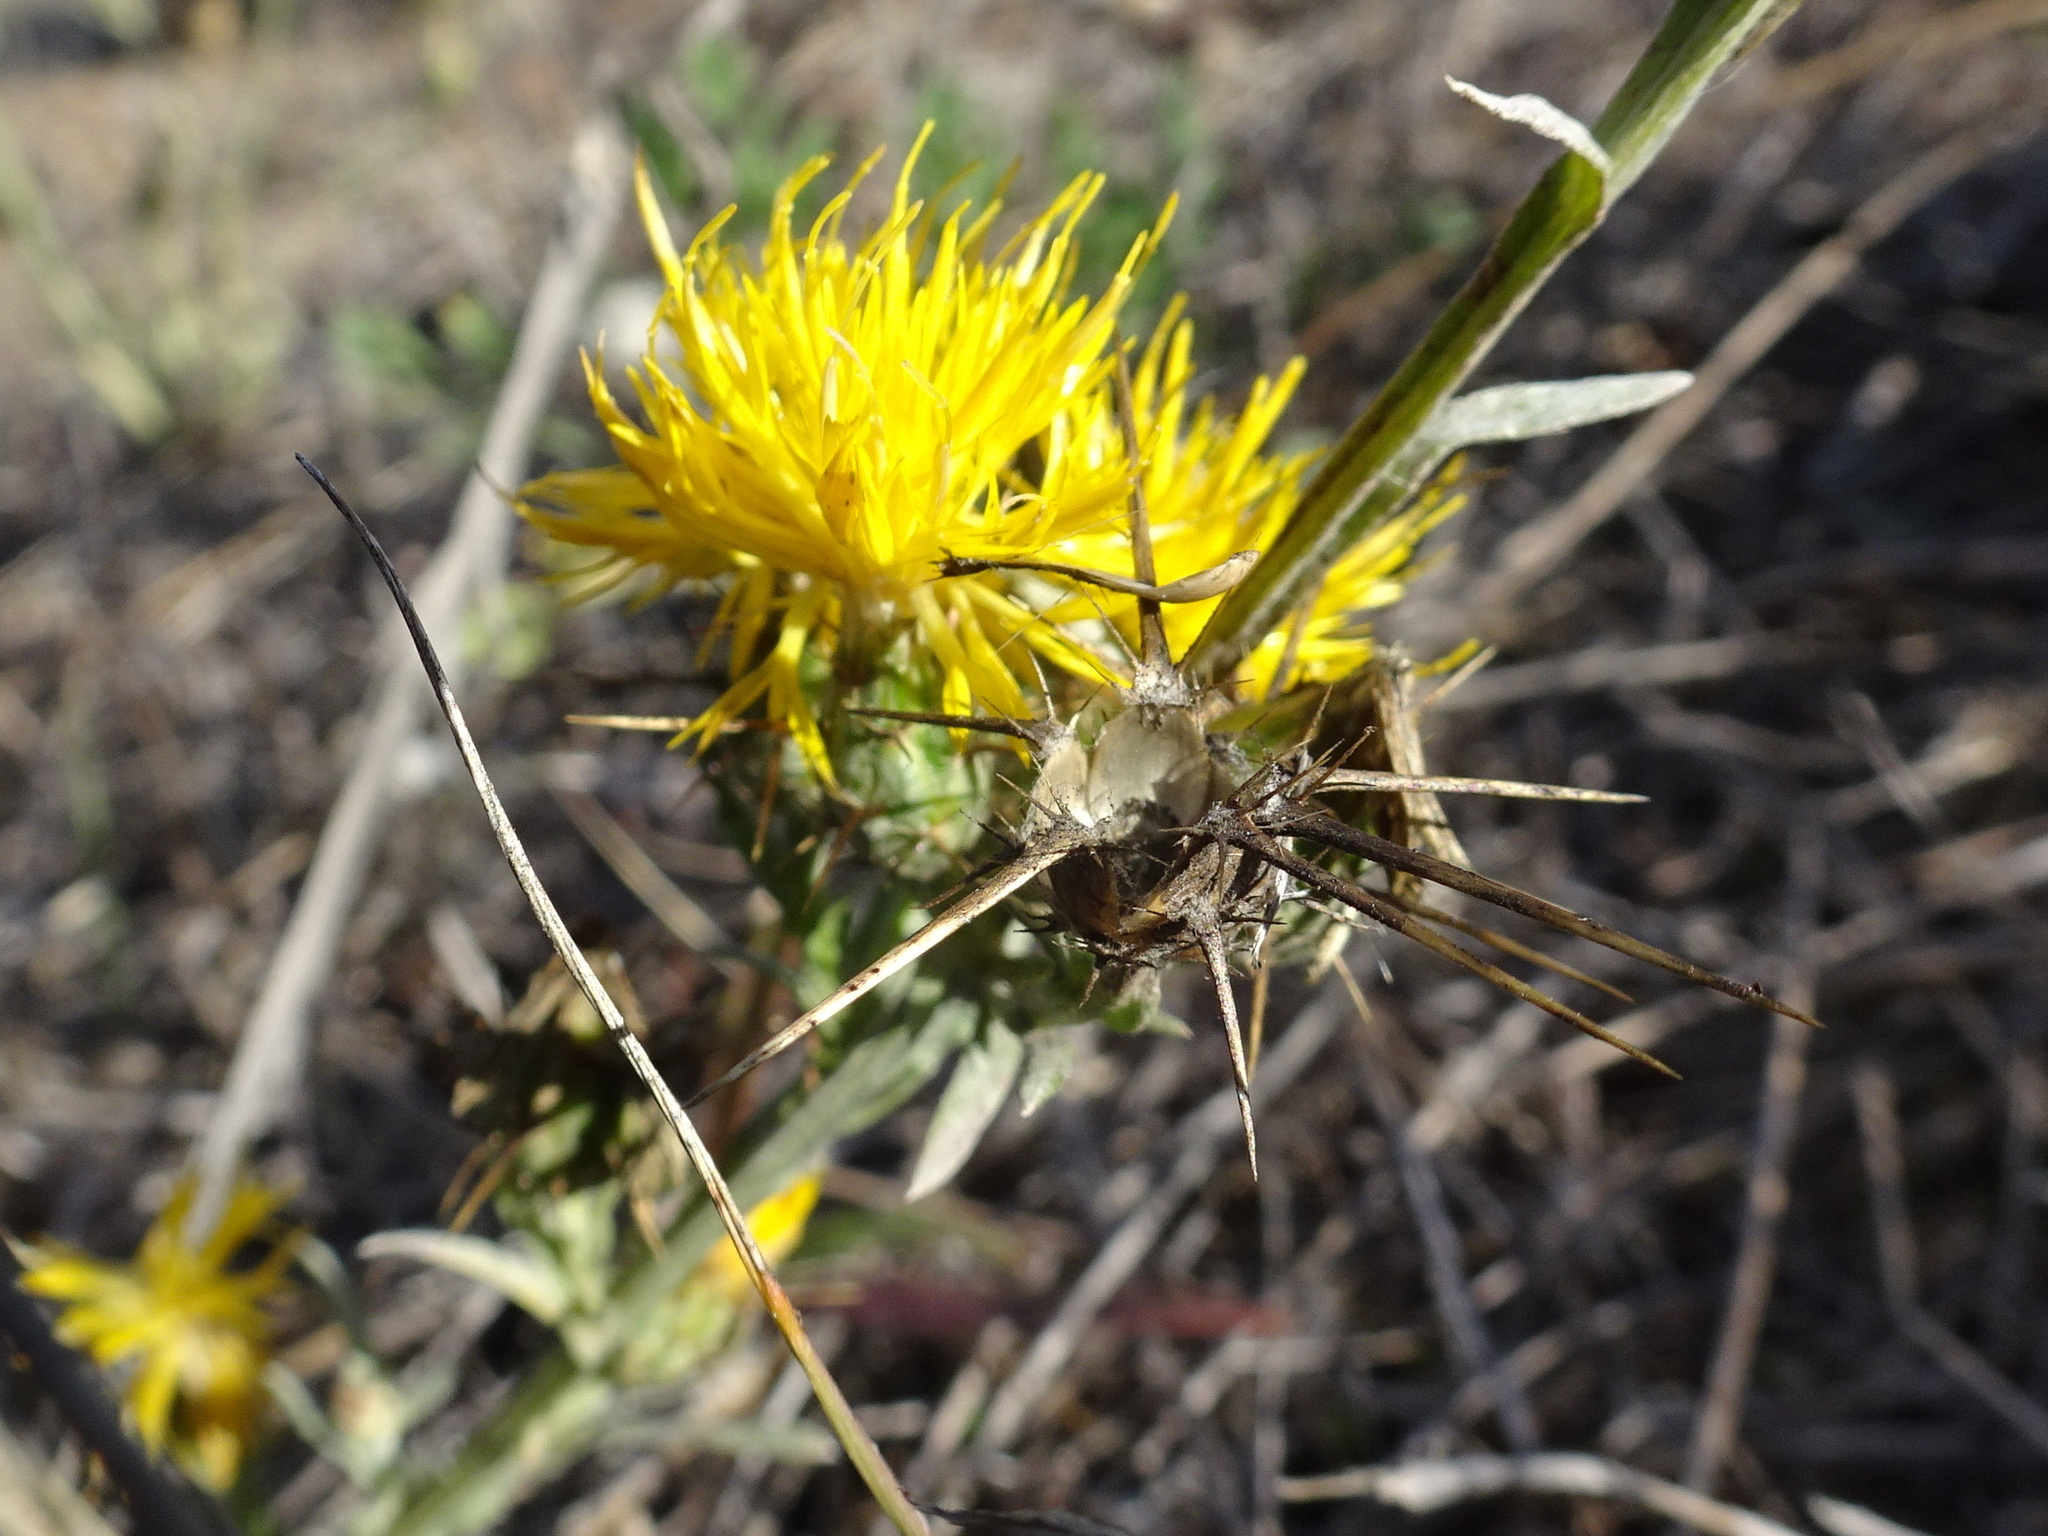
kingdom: Plantae
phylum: Tracheophyta
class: Magnoliopsida
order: Asterales
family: Asteraceae
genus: Centaurea
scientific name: Centaurea solstitialis
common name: Yellow star-thistle
